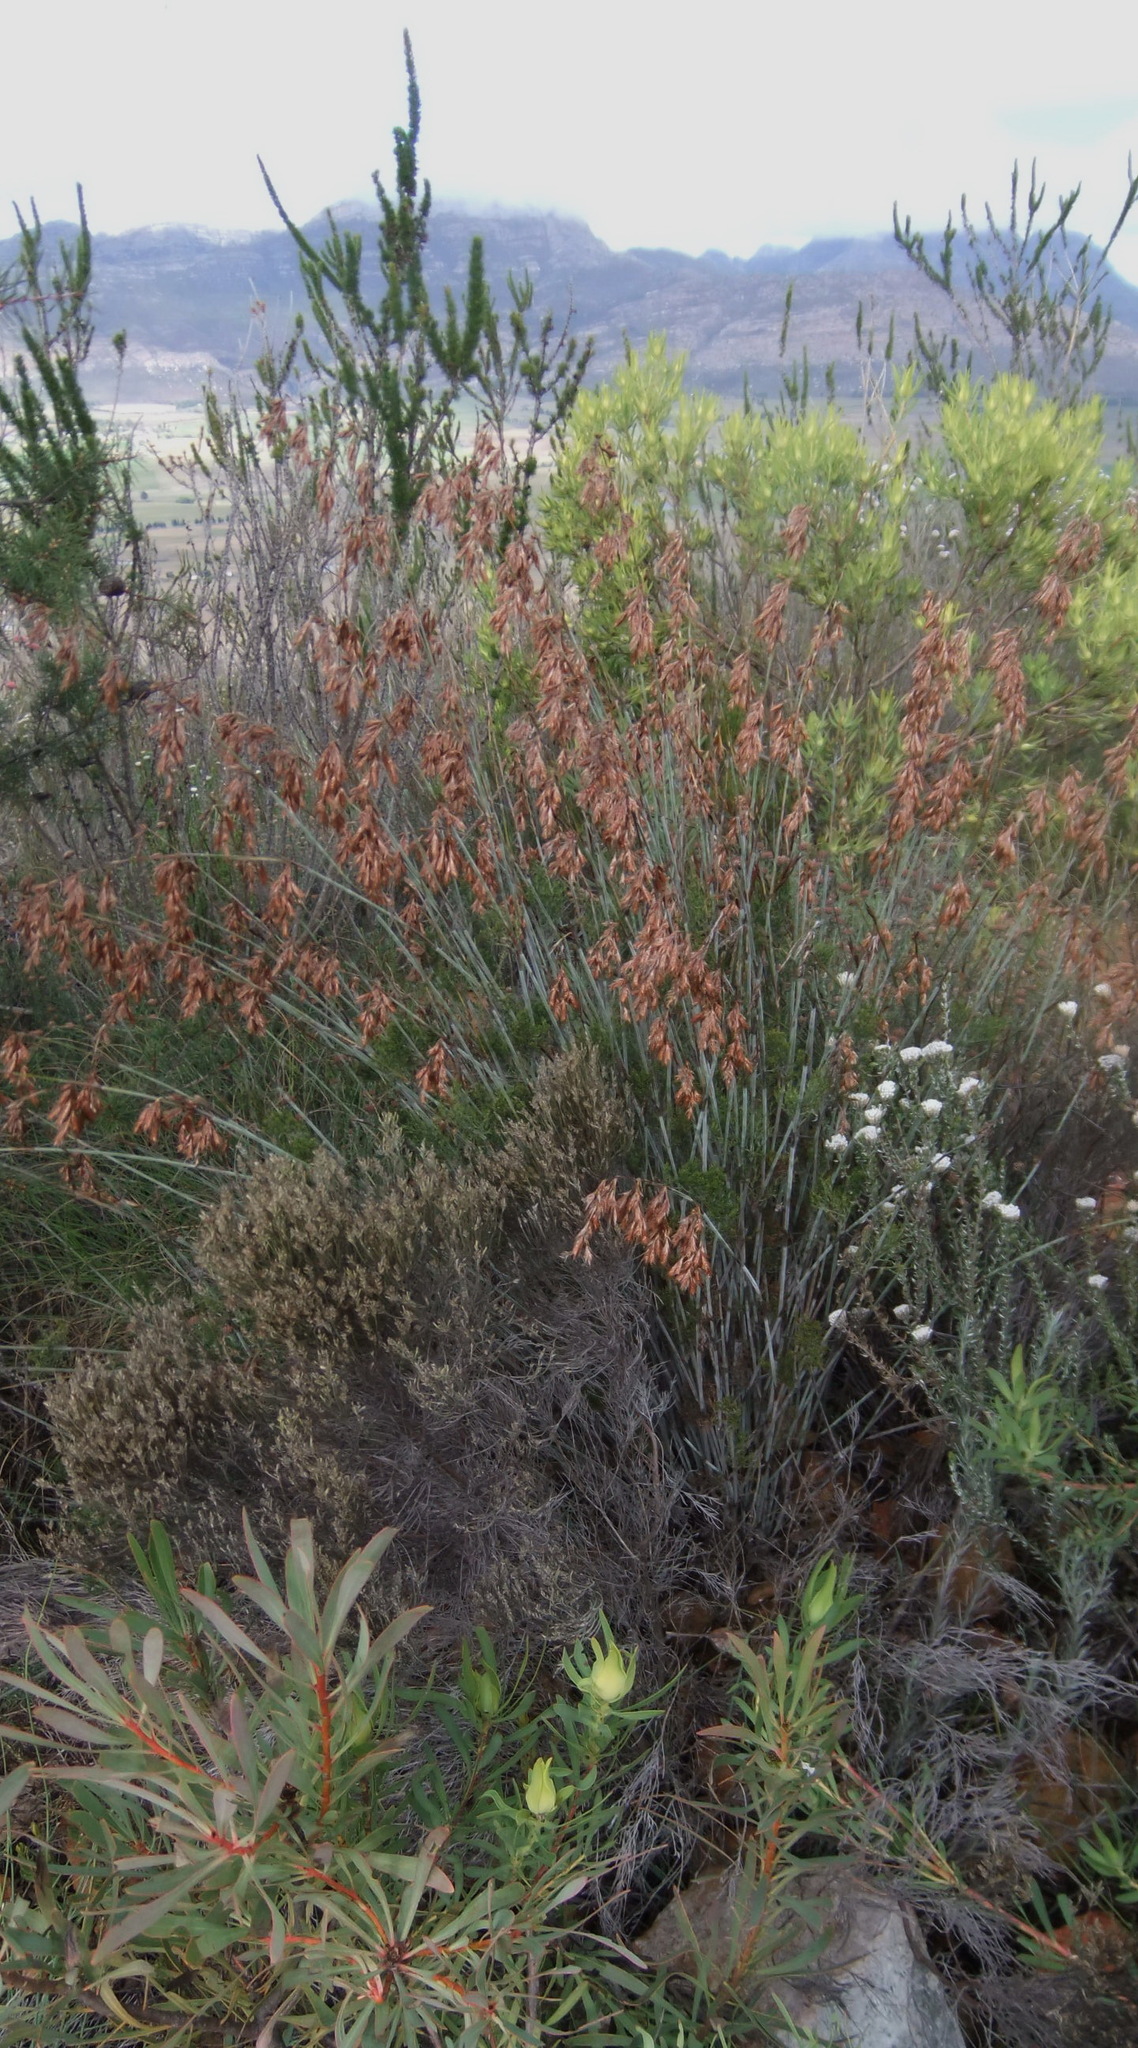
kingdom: Plantae
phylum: Tracheophyta
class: Liliopsida
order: Poales
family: Restionaceae
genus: Thamnochortus
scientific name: Thamnochortus rigidus
